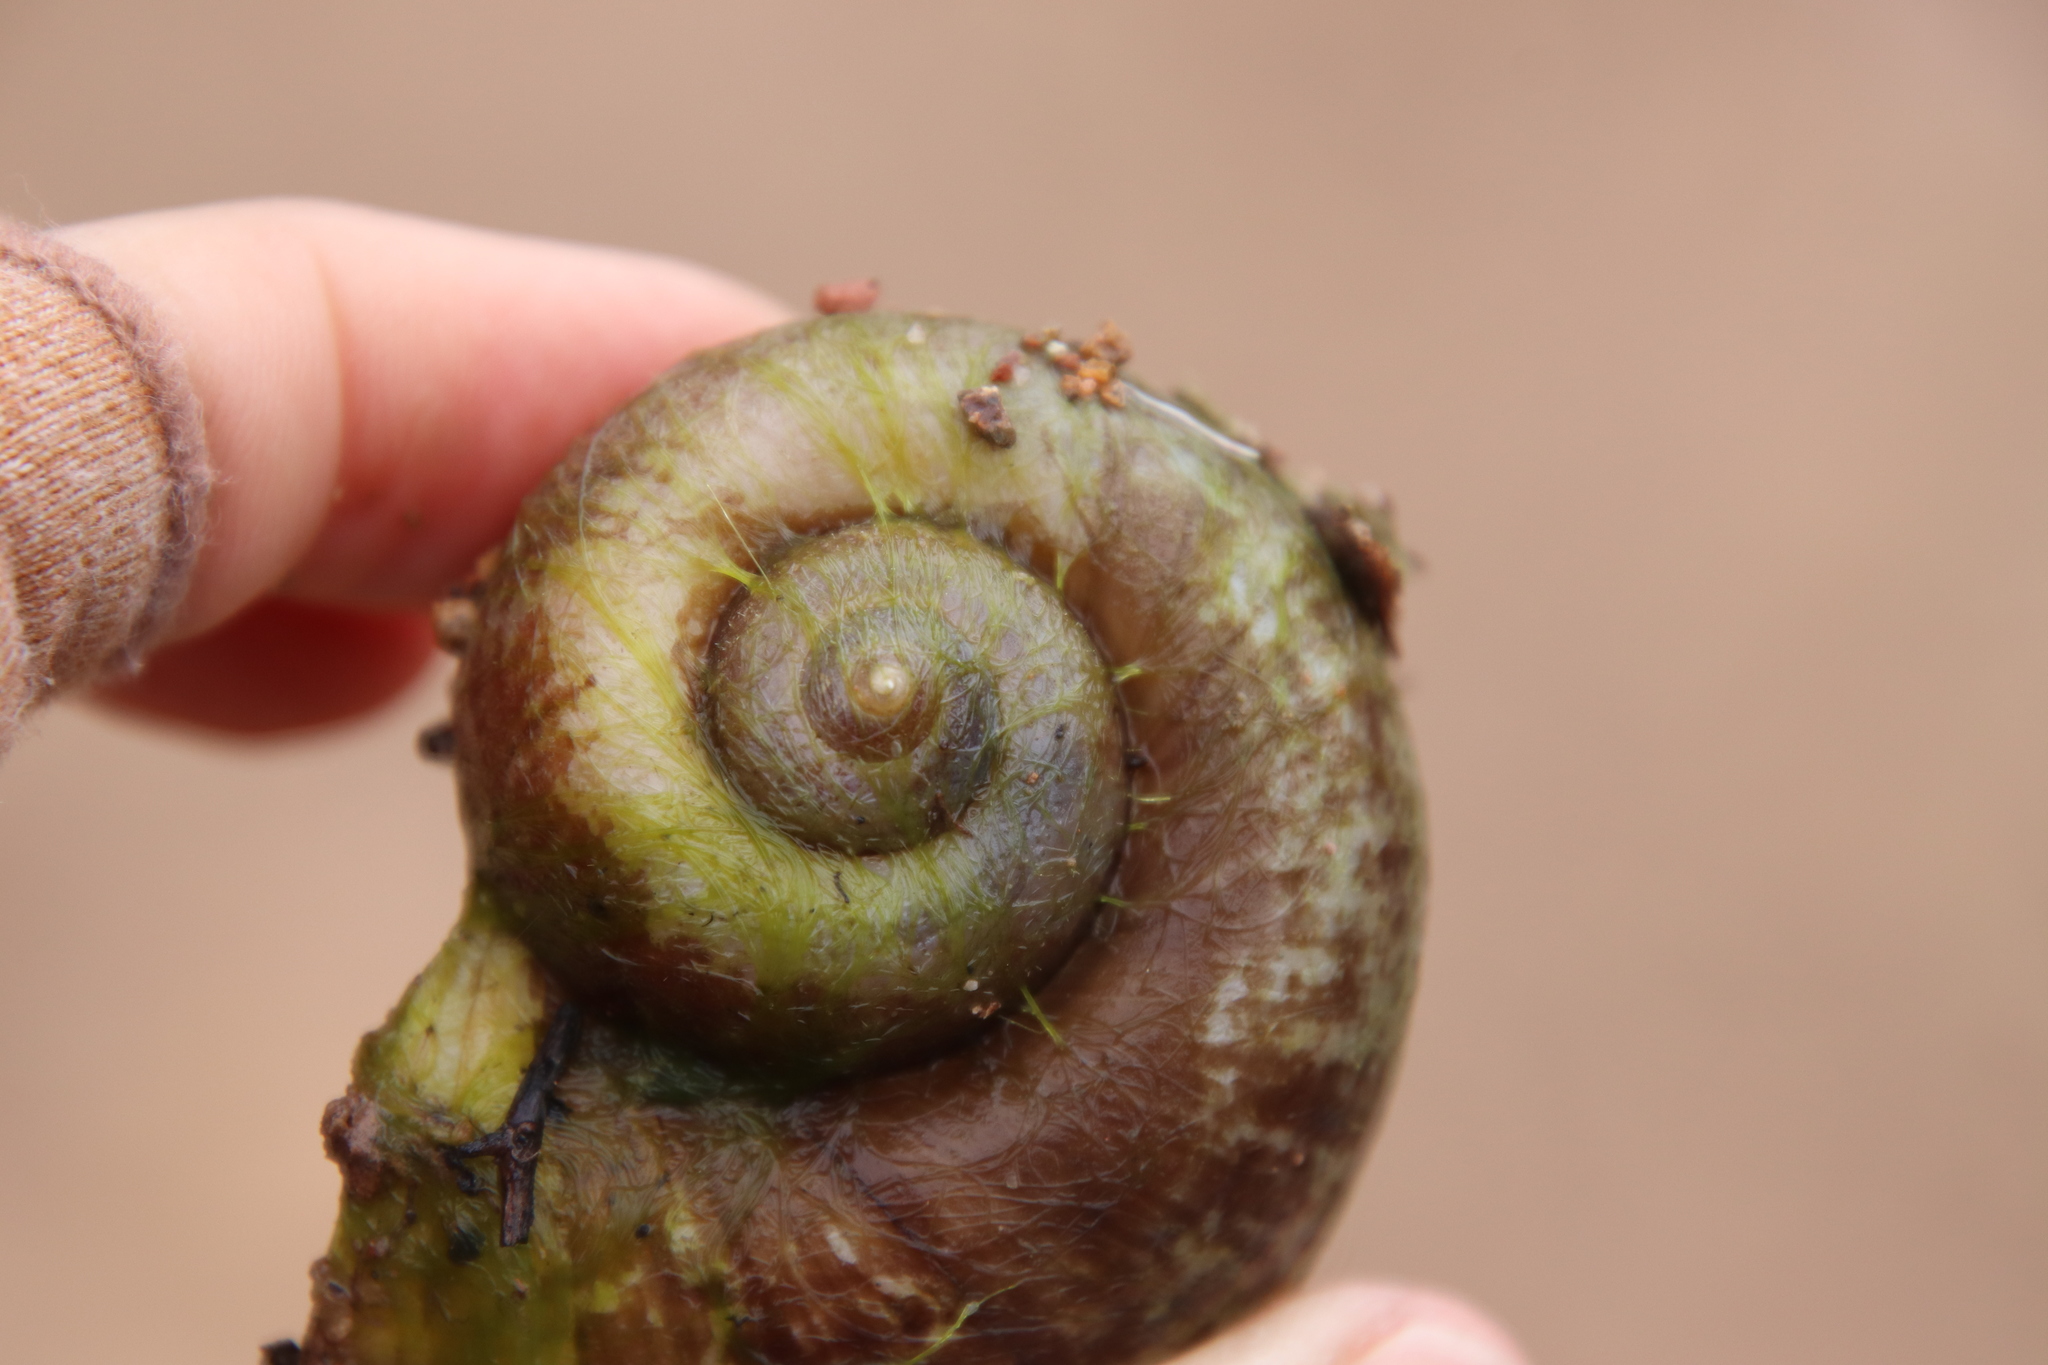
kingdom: Animalia
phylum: Mollusca
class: Gastropoda
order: Architaenioglossa
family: Ampullariidae
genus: Pomacea
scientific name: Pomacea canaliculata
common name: Channeled applesnail
